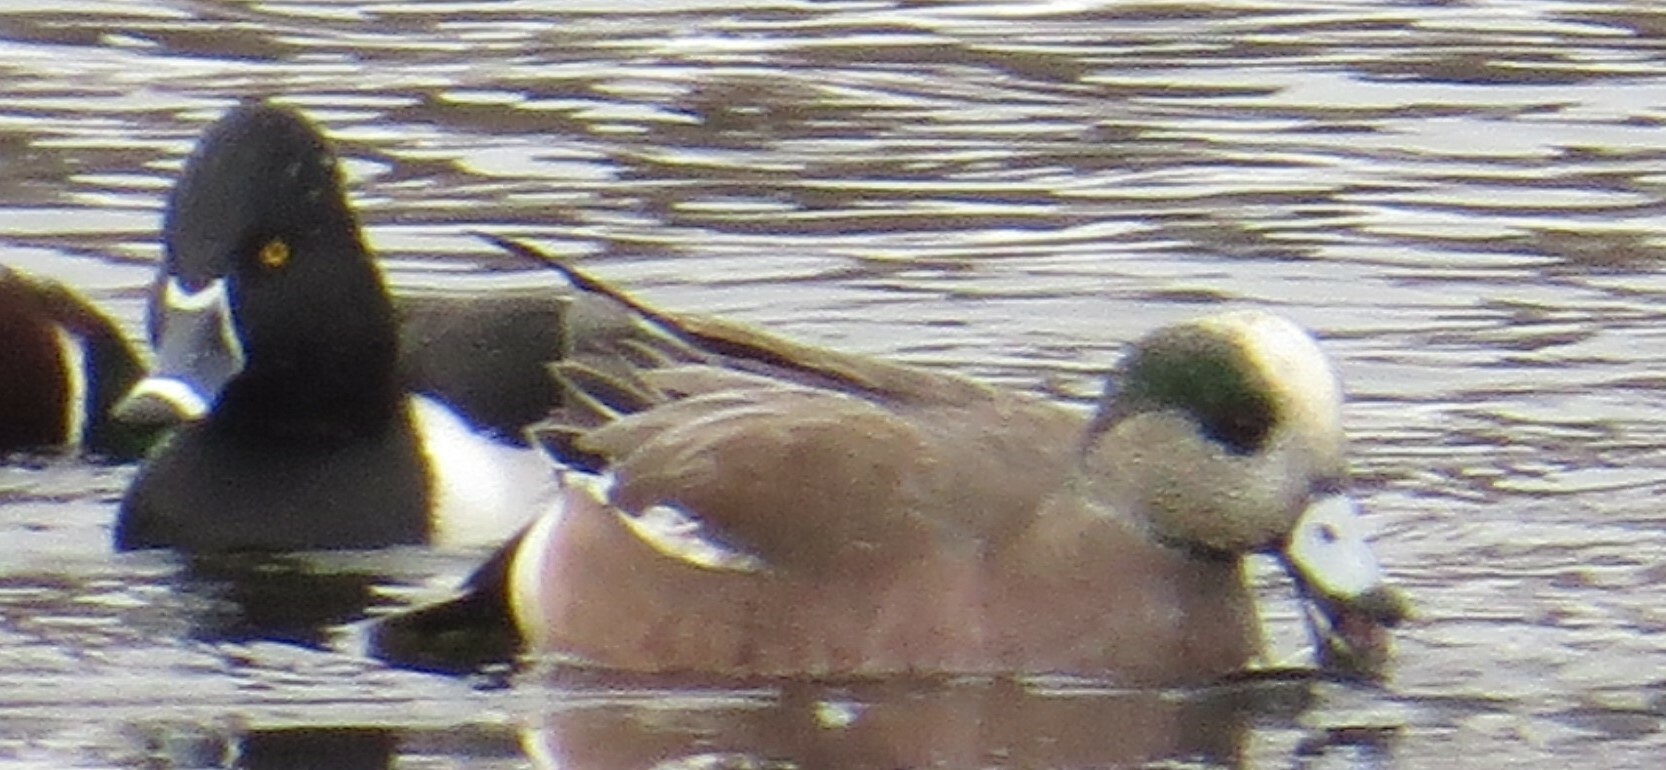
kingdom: Animalia
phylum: Chordata
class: Aves
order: Anseriformes
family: Anatidae
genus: Mareca
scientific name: Mareca americana
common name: American wigeon
